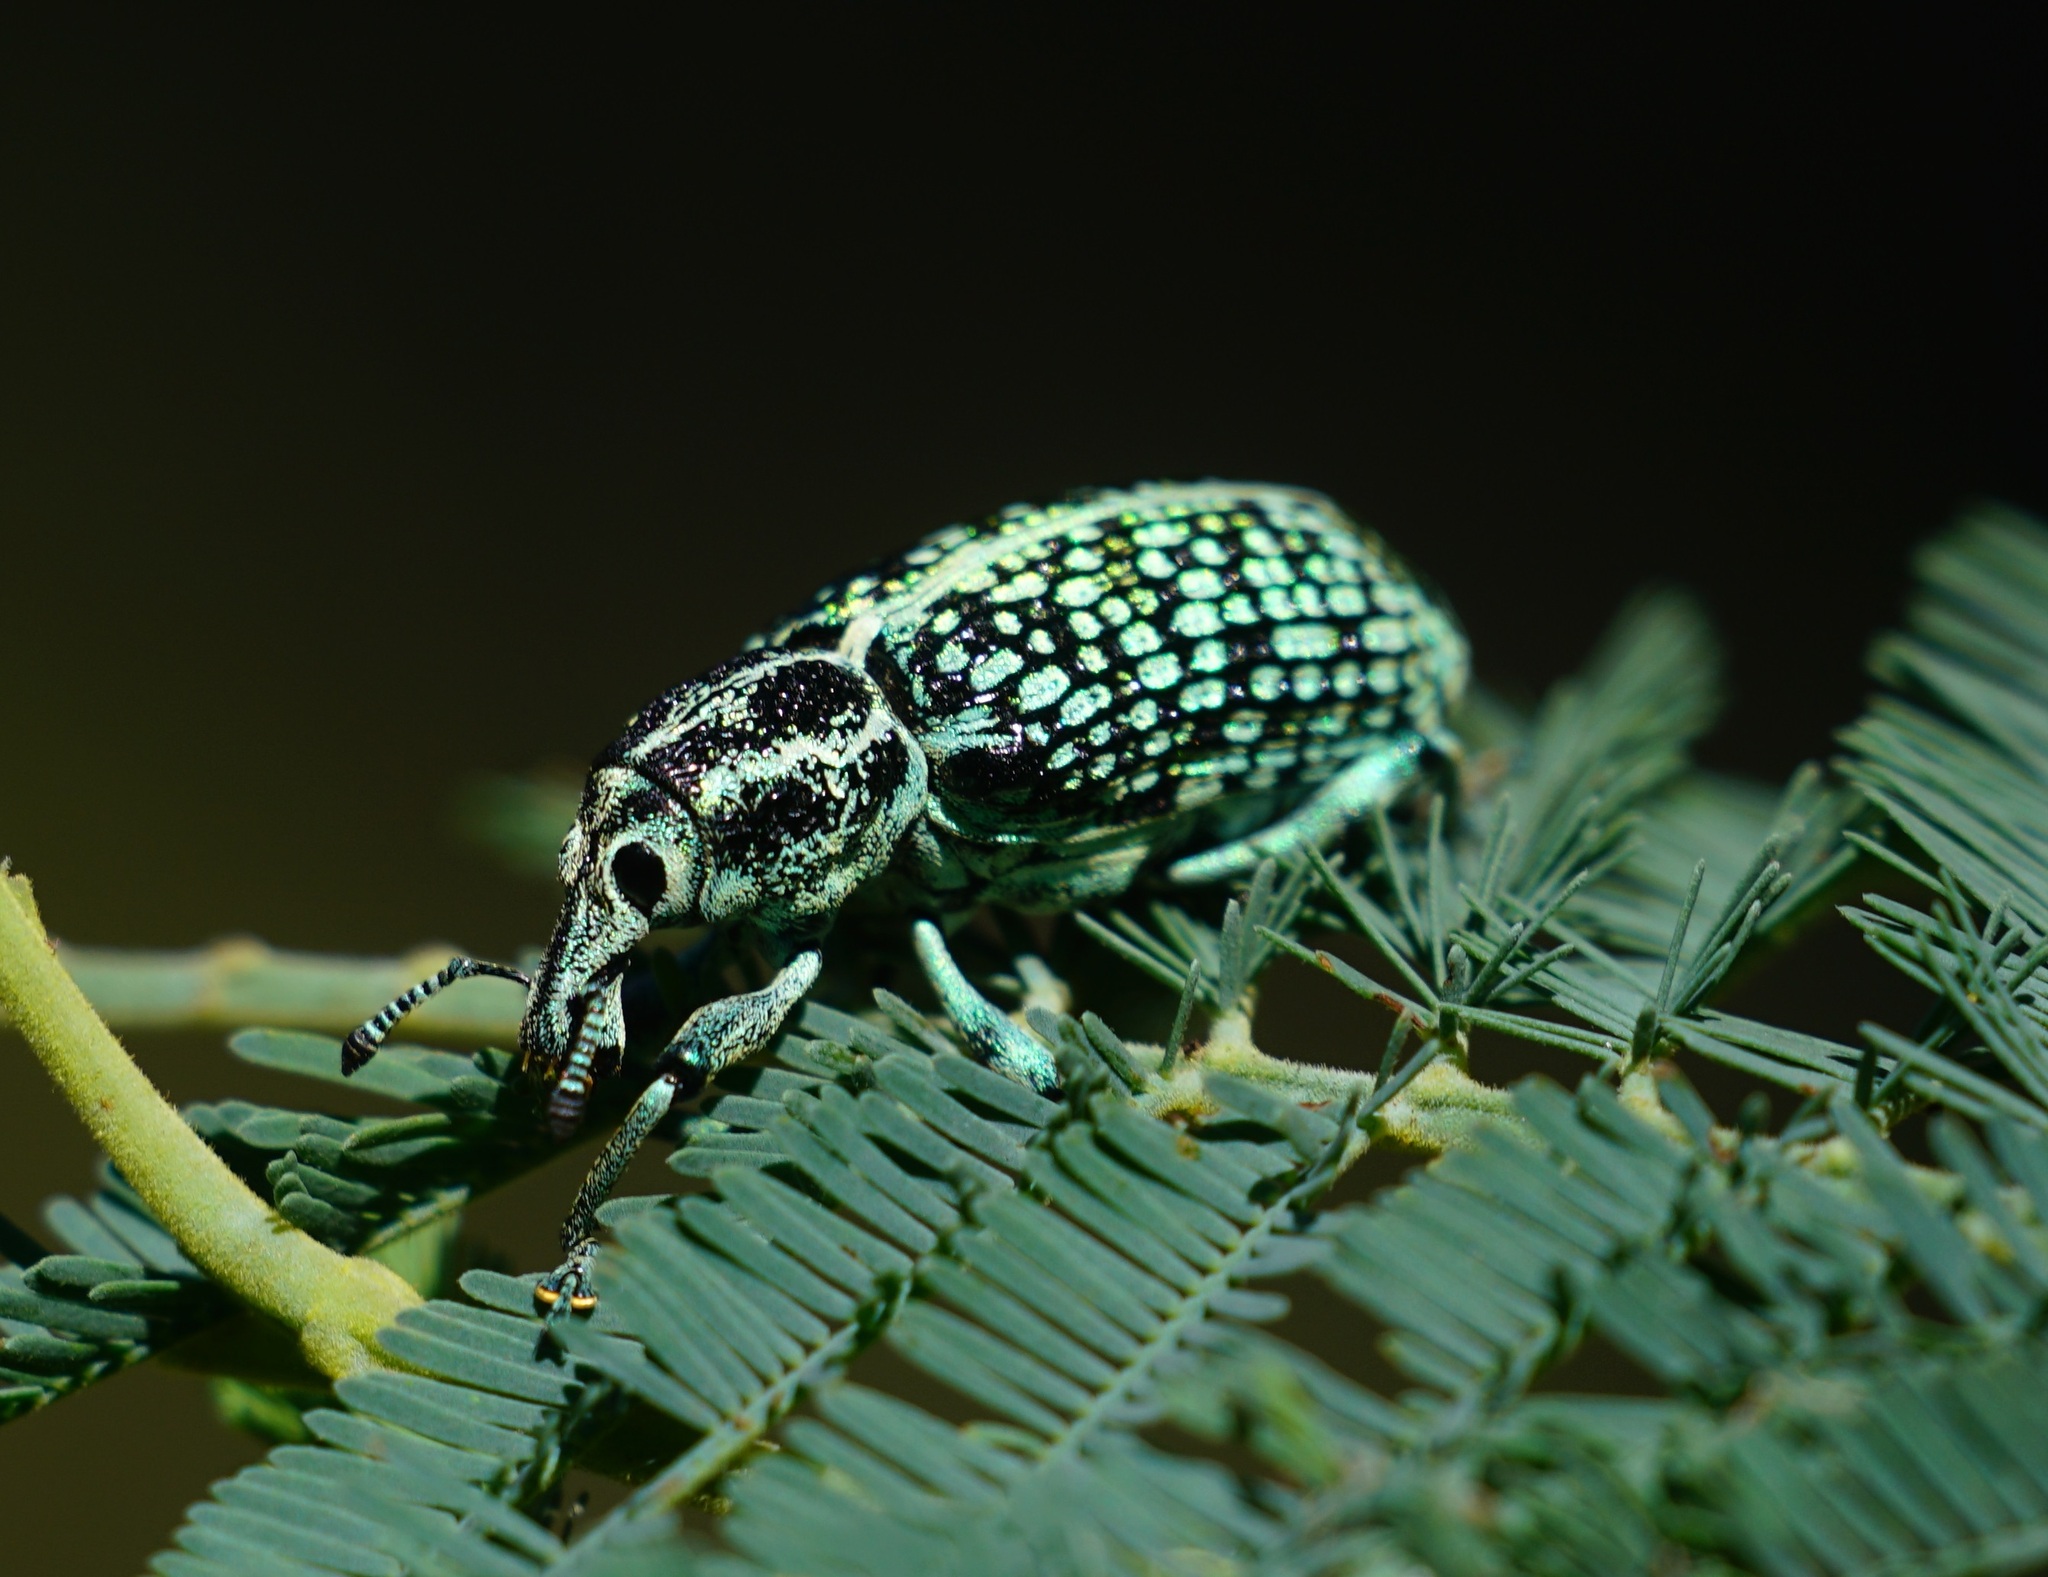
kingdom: Animalia
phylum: Arthropoda
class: Insecta
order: Coleoptera
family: Curculionidae
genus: Chrysolopus
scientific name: Chrysolopus spectabilis
